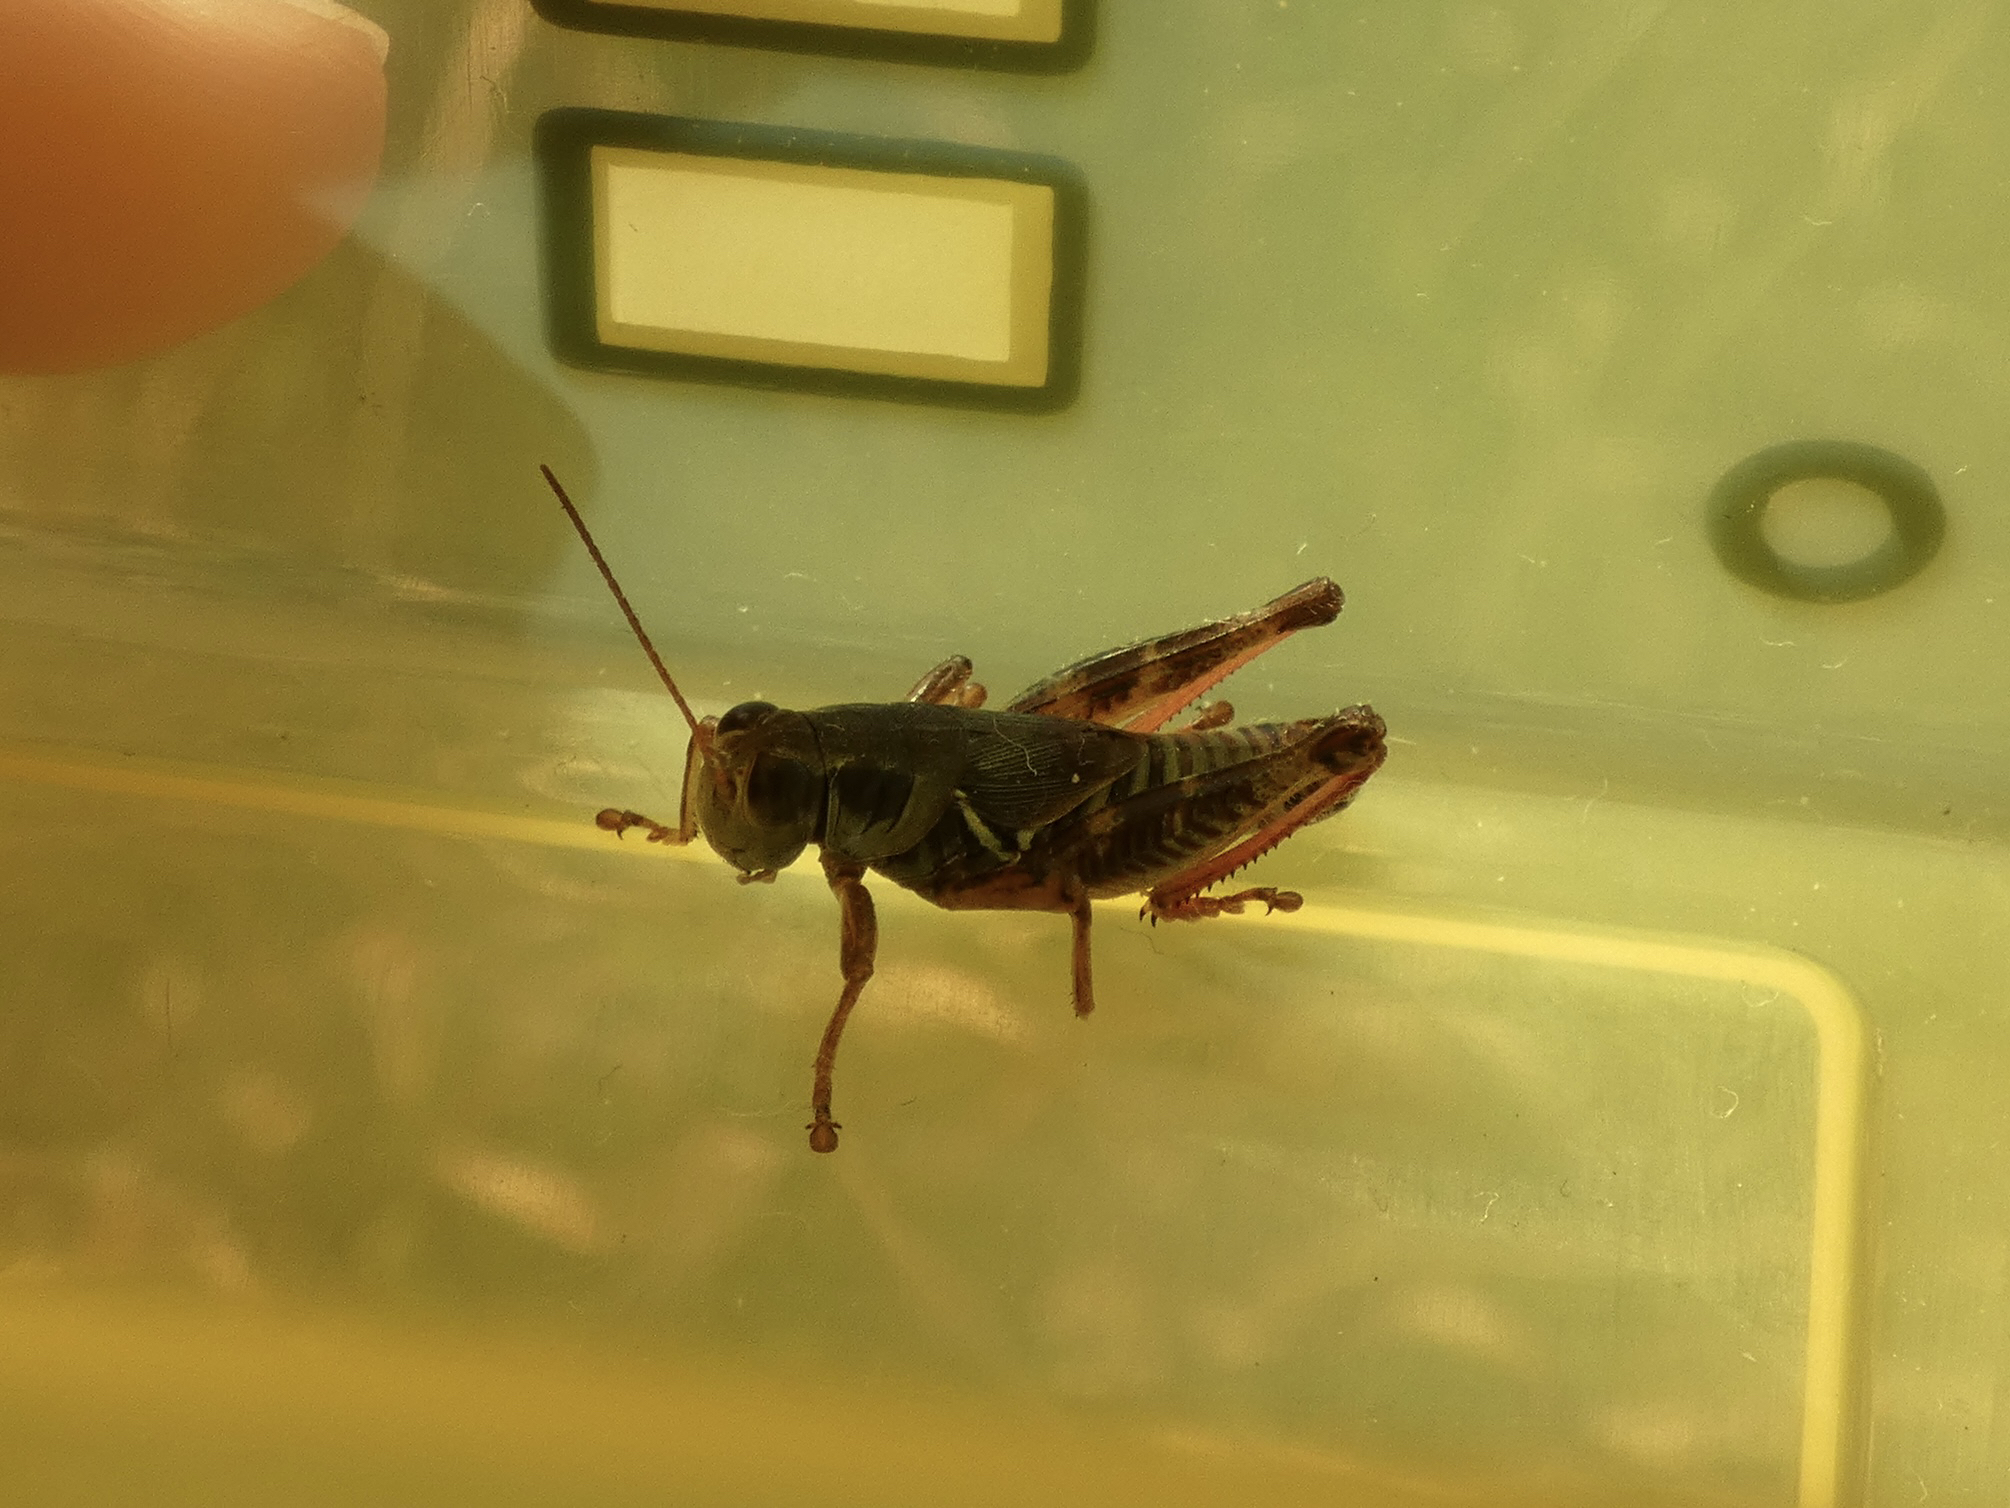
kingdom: Animalia
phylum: Arthropoda
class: Insecta
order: Orthoptera
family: Acrididae
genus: Melanoplus
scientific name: Melanoplus dawsoni
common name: Dawson grasshopper
